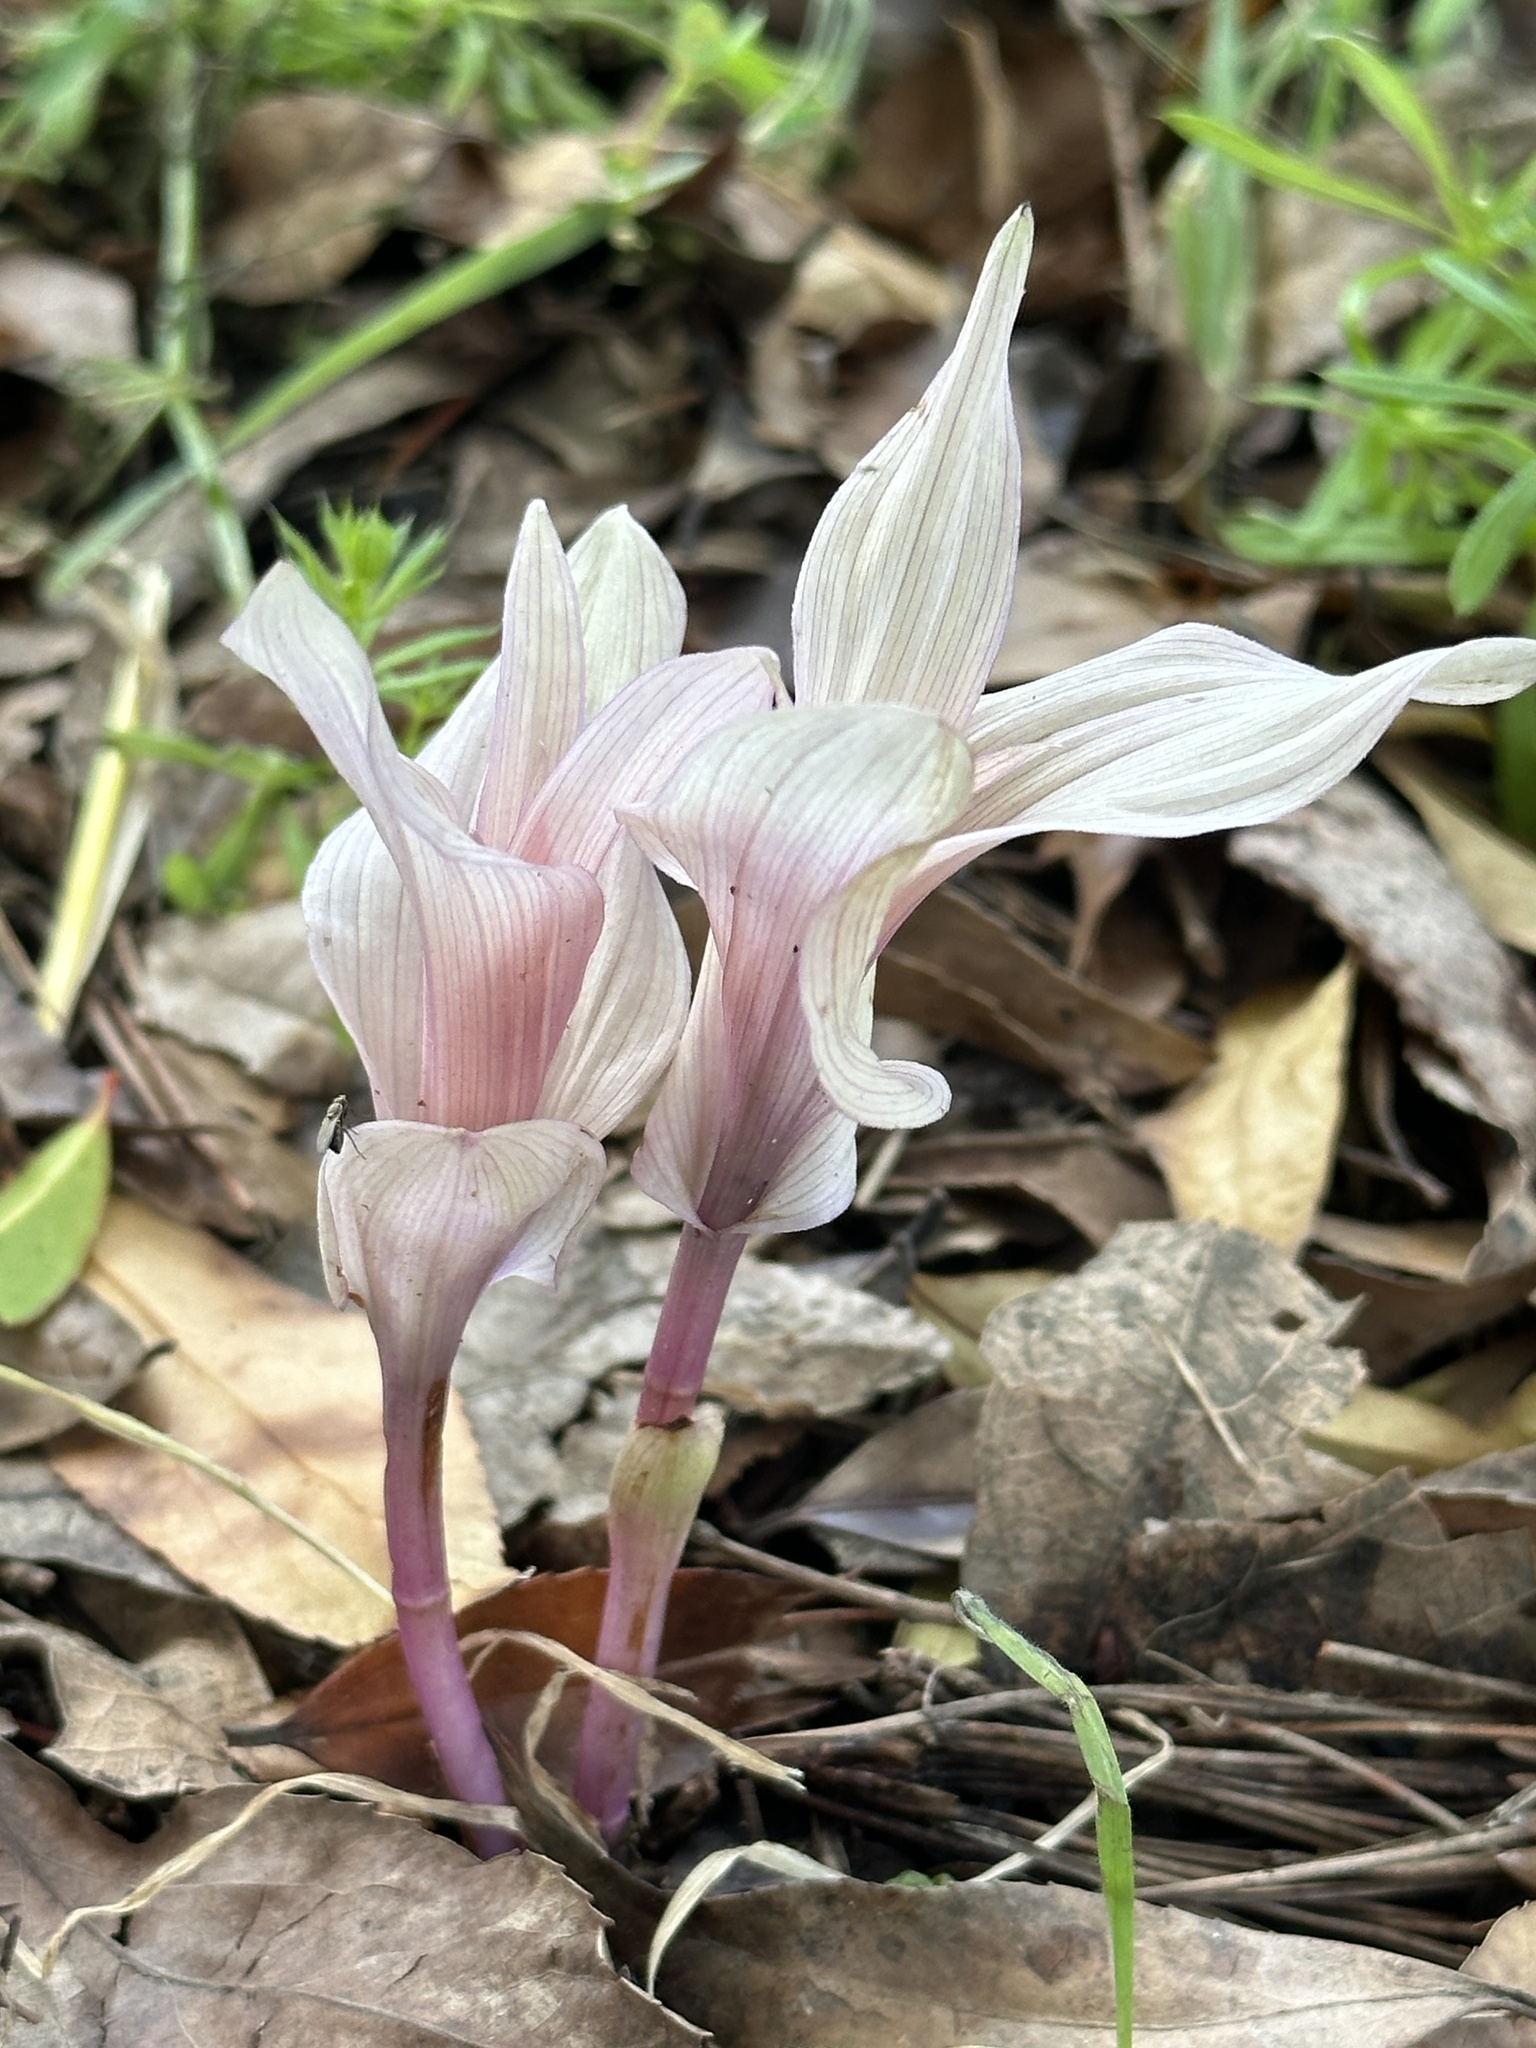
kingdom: Plantae
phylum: Tracheophyta
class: Liliopsida
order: Asparagales
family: Orchidaceae
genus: Epipactis
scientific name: Epipactis helleborine
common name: Broad-leaved helleborine
